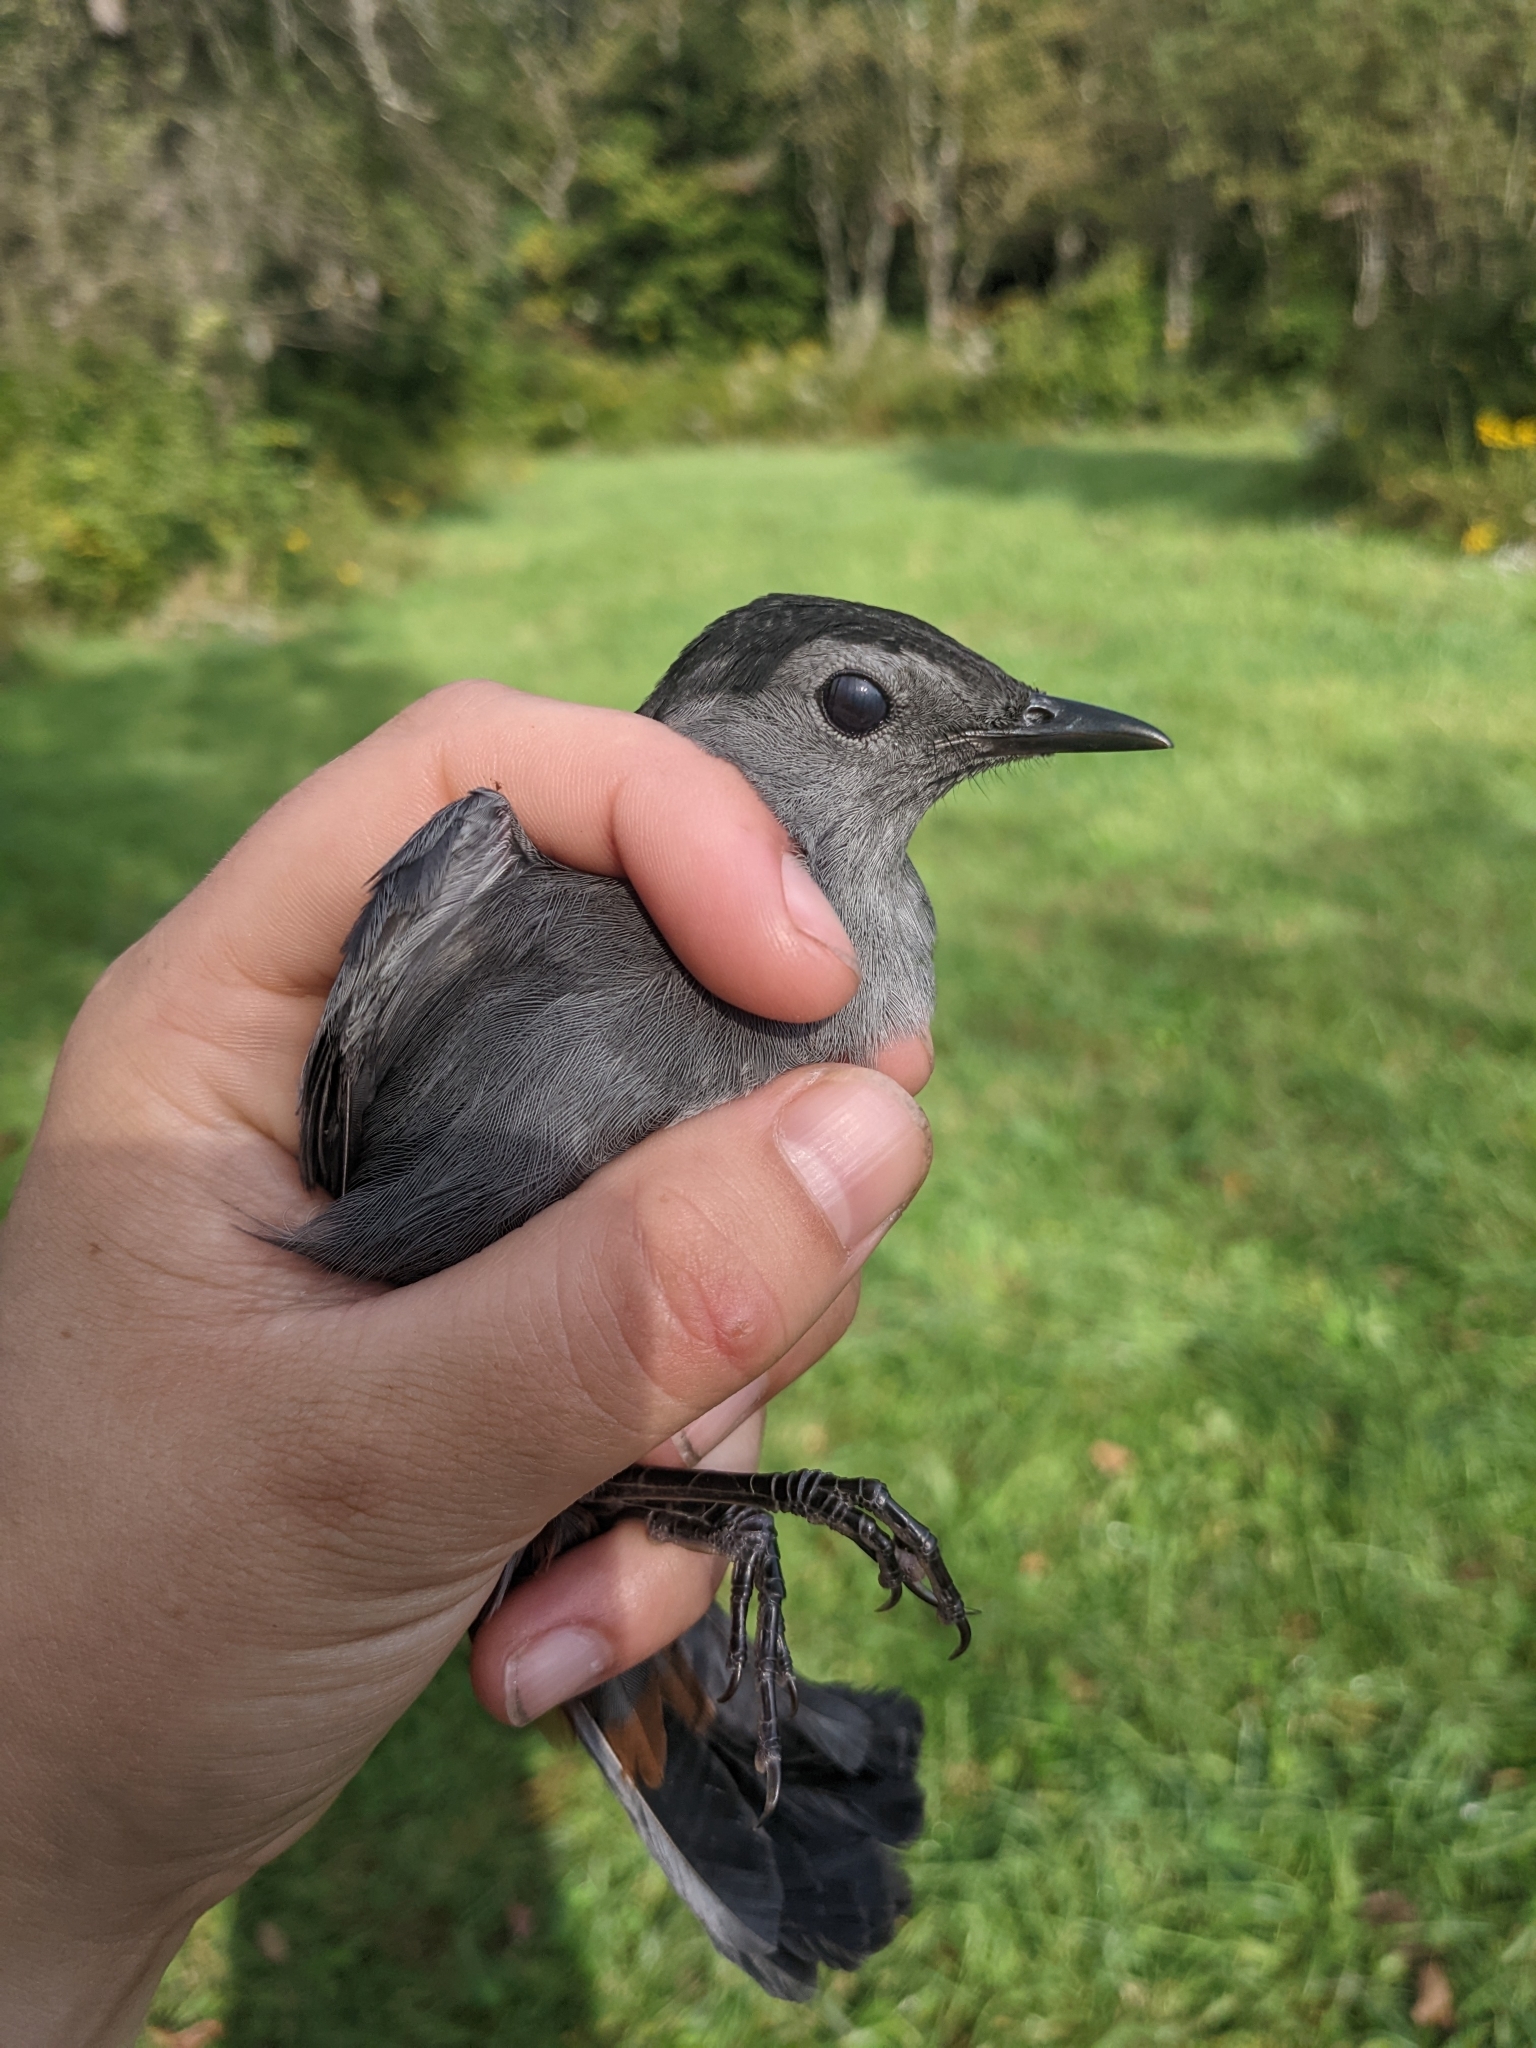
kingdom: Animalia
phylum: Chordata
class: Aves
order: Passeriformes
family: Mimidae
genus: Dumetella
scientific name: Dumetella carolinensis
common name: Gray catbird
